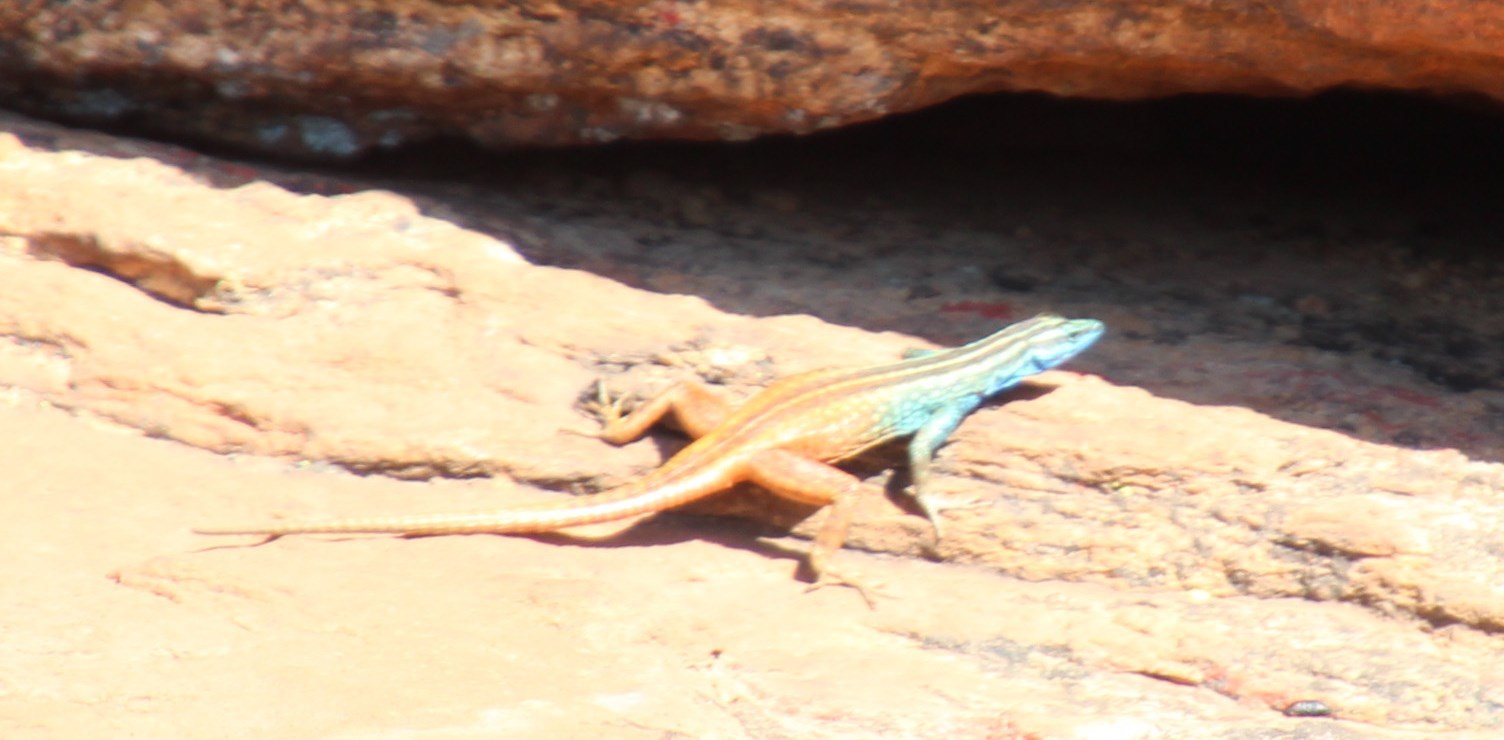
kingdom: Animalia
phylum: Chordata
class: Squamata
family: Cordylidae
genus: Platysaurus
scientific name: Platysaurus capensis
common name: Namaqua flat lizard
